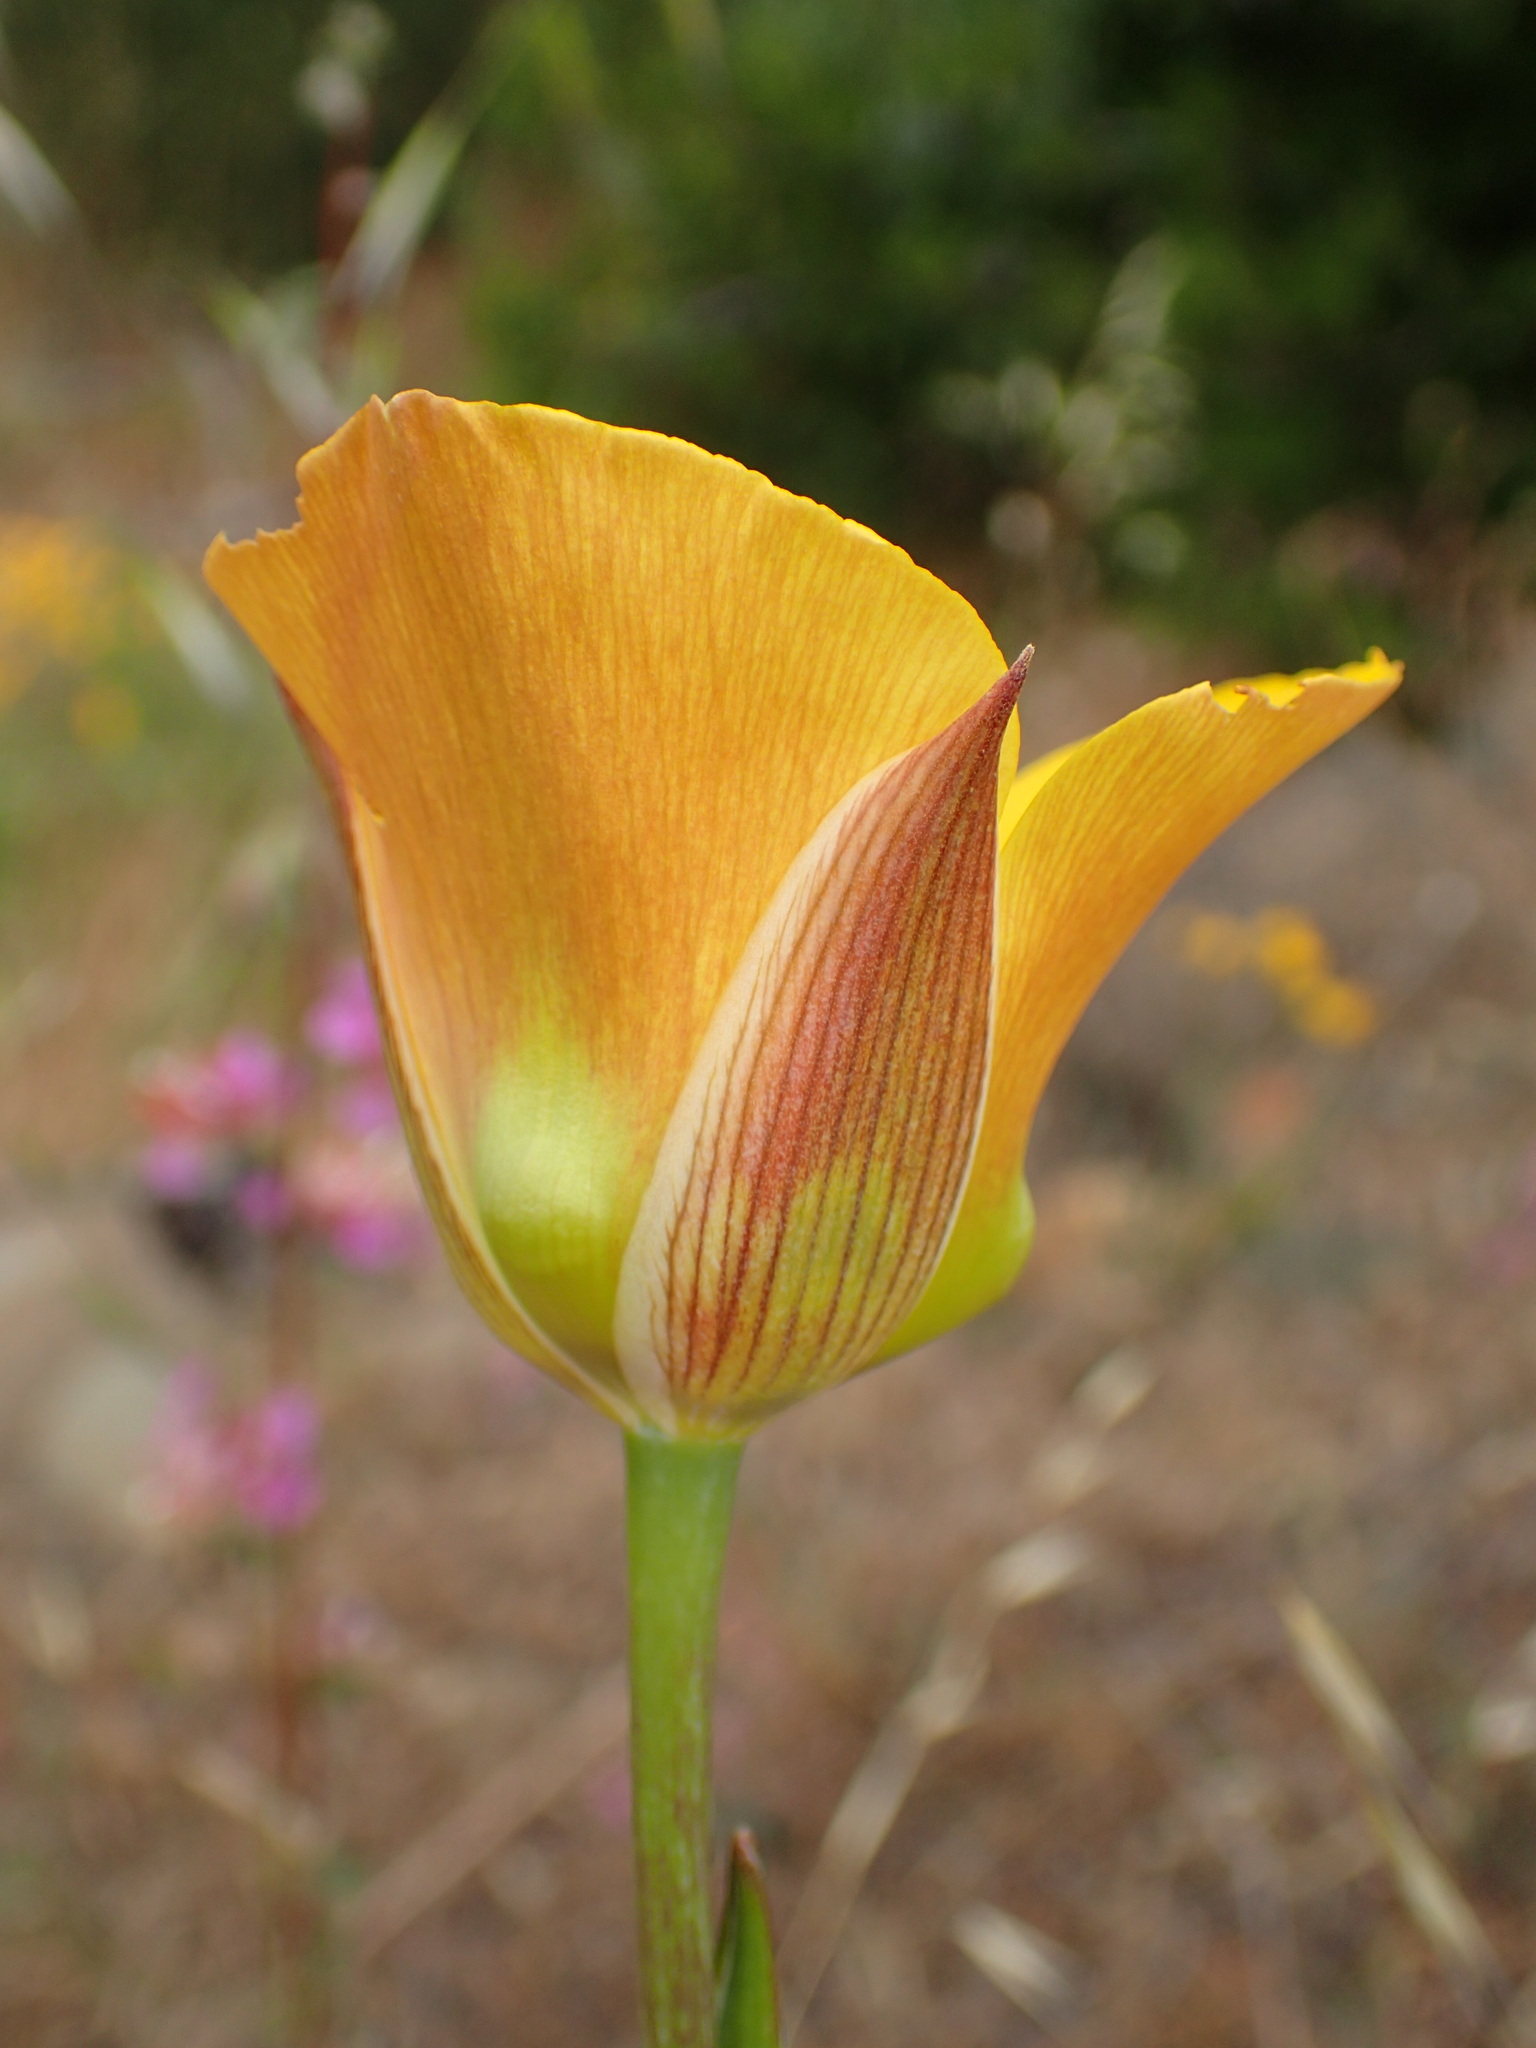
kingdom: Plantae
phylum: Tracheophyta
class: Liliopsida
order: Liliales
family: Liliaceae
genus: Calochortus
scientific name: Calochortus clavatus
